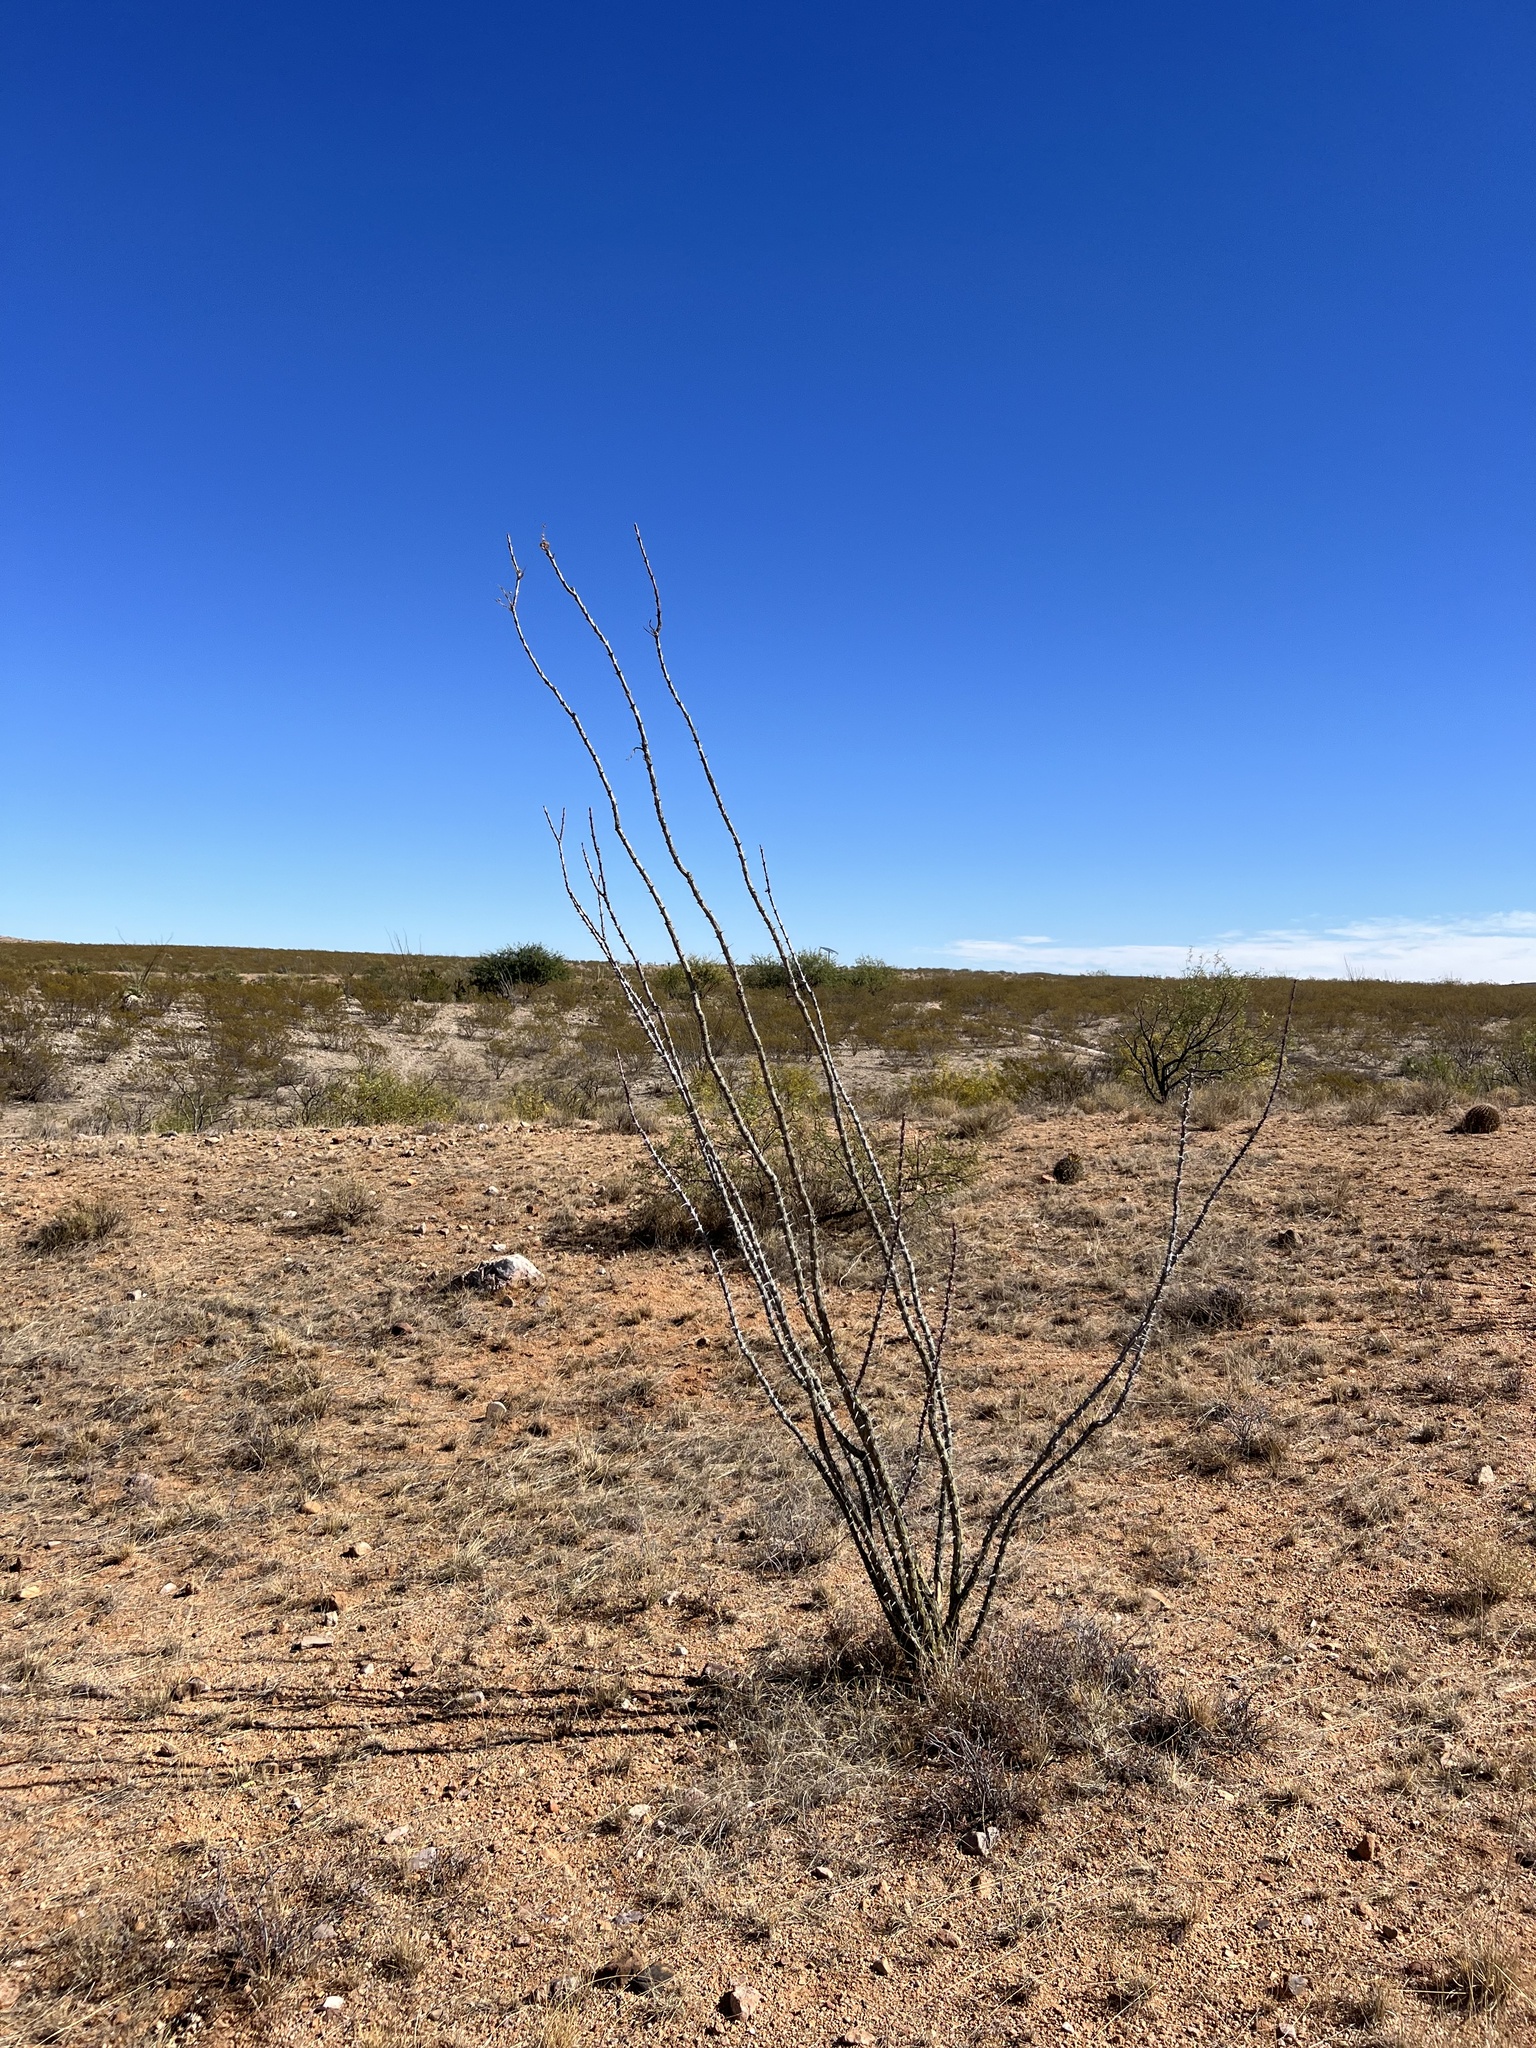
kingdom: Plantae
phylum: Tracheophyta
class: Magnoliopsida
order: Ericales
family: Fouquieriaceae
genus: Fouquieria
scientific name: Fouquieria splendens
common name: Vine-cactus
